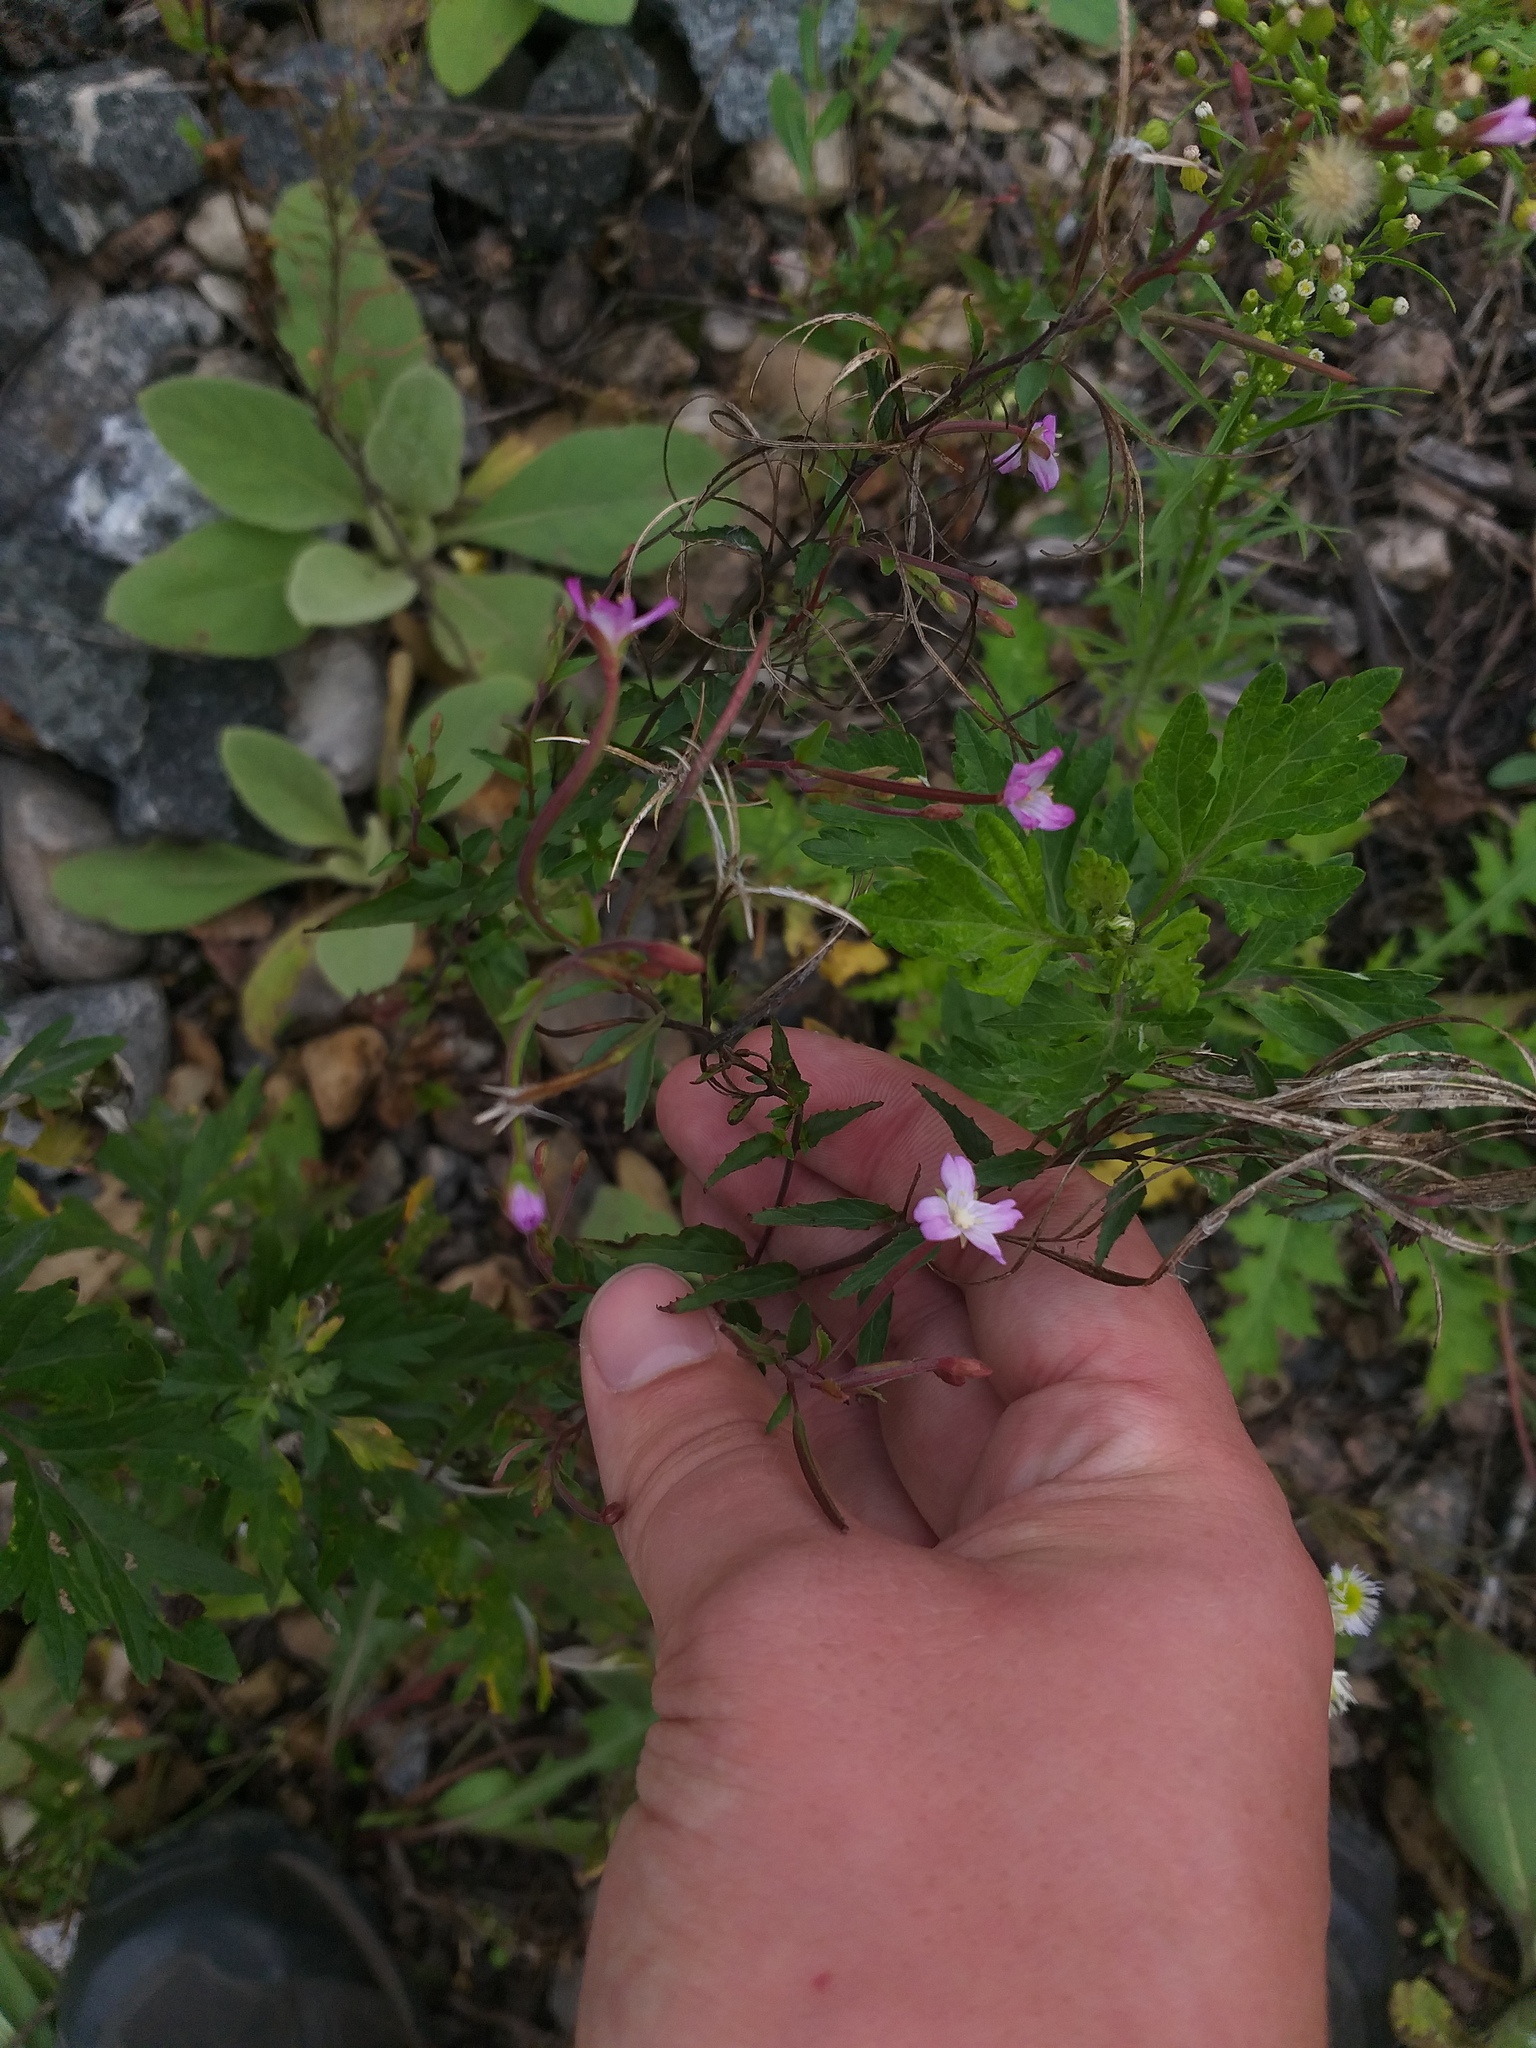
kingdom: Plantae
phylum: Tracheophyta
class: Magnoliopsida
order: Myrtales
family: Onagraceae
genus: Epilobium
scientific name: Epilobium montanum
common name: Broad-leaved willowherb
